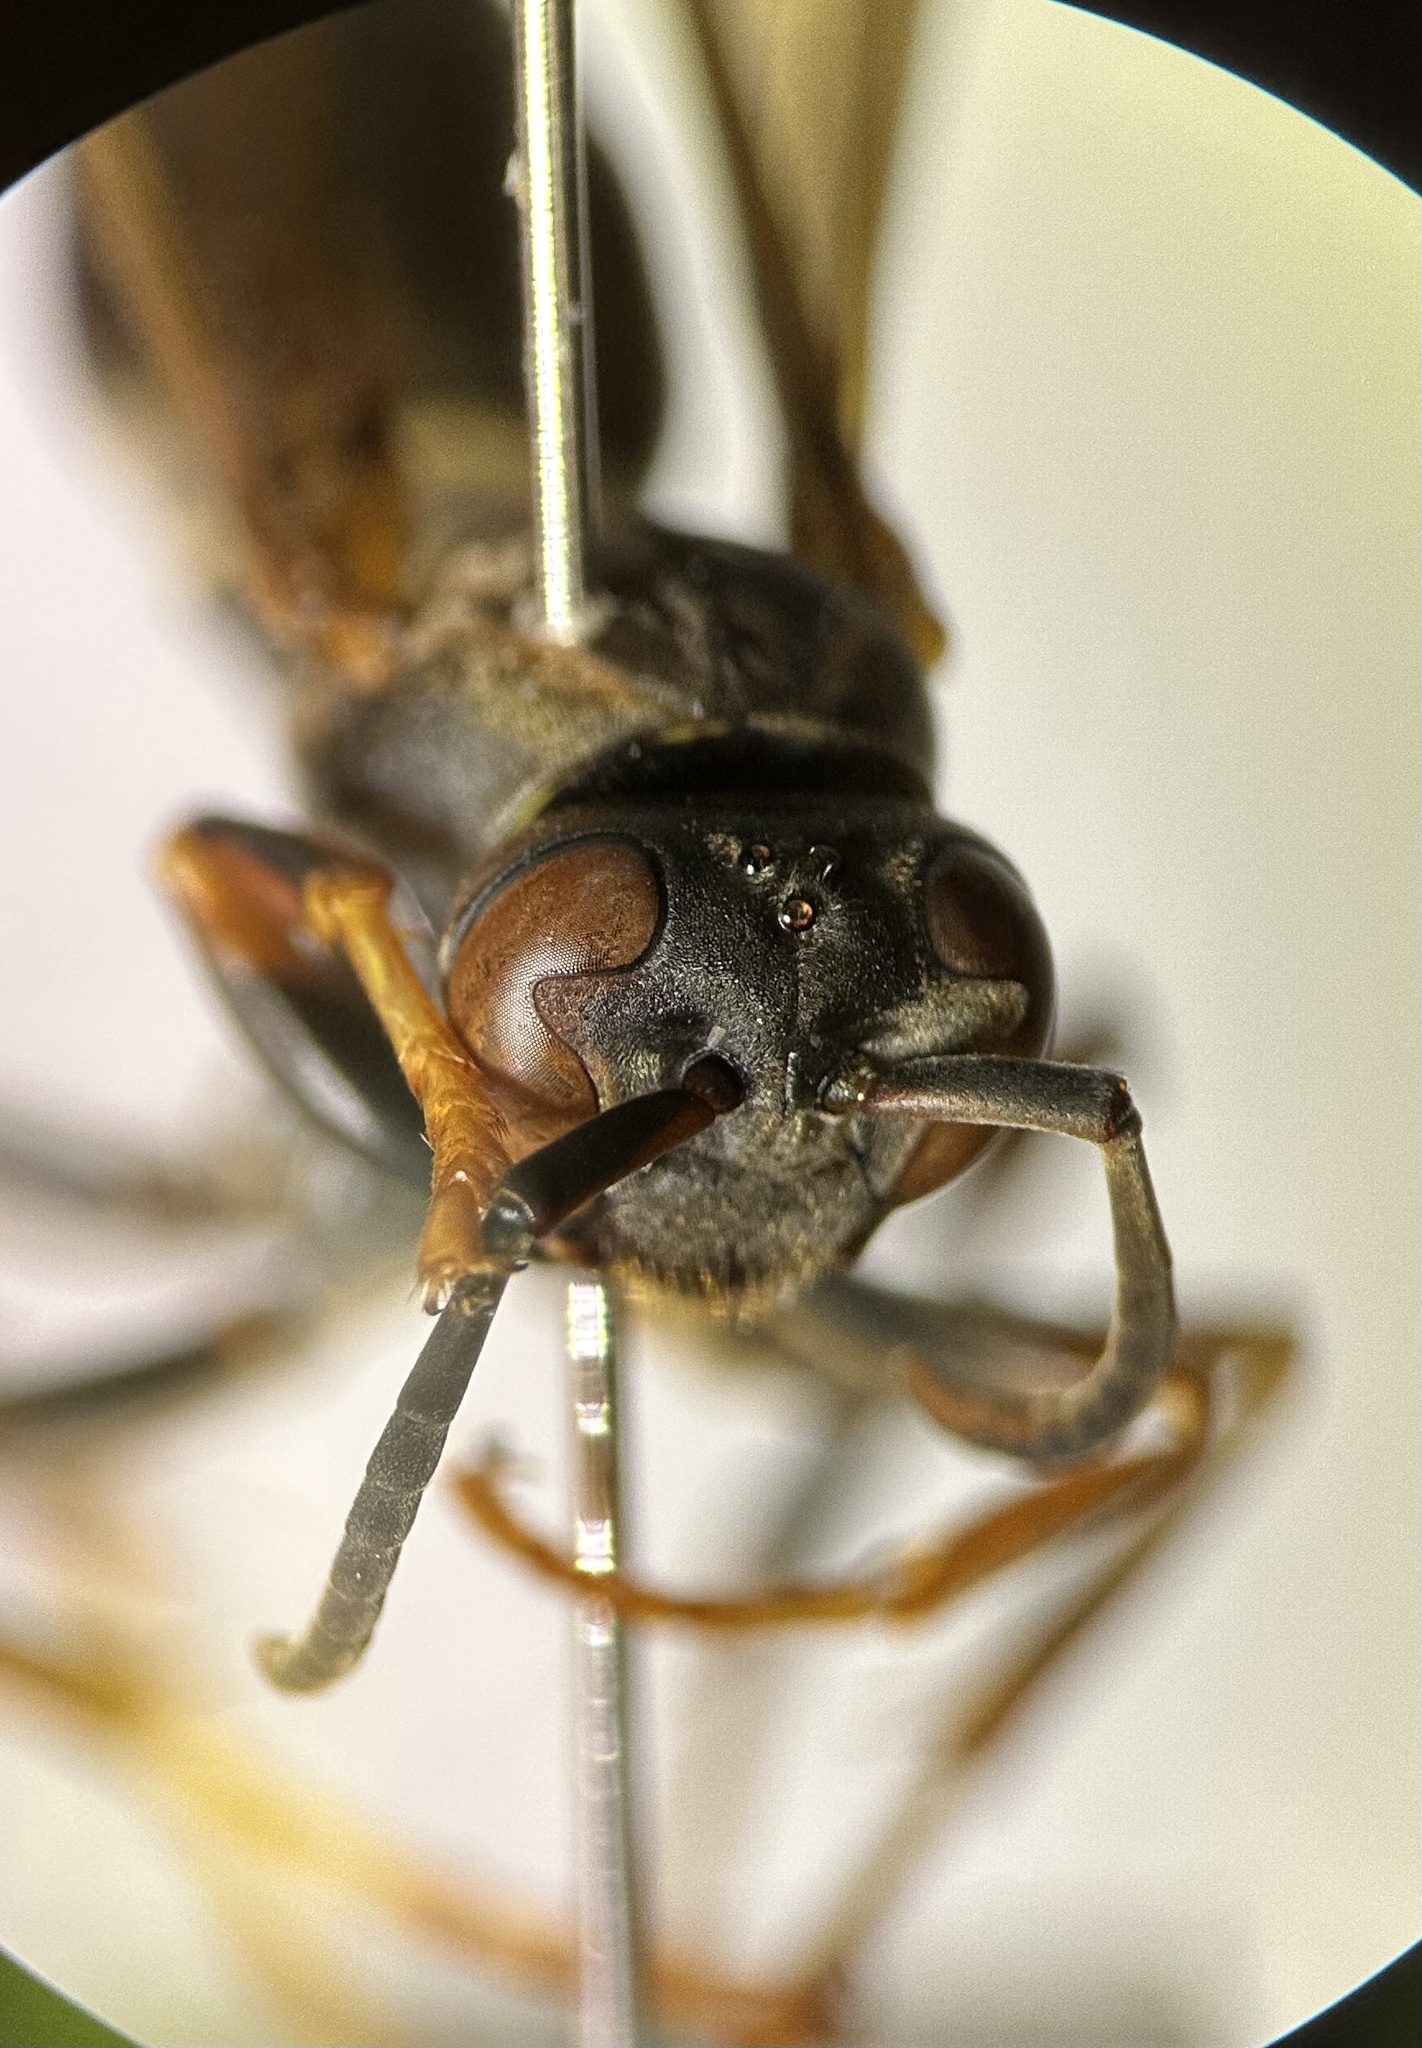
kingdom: Animalia
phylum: Arthropoda
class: Insecta
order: Hymenoptera
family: Eumenidae
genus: Polistes
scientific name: Polistes fuscatus
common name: Dark paper wasp
